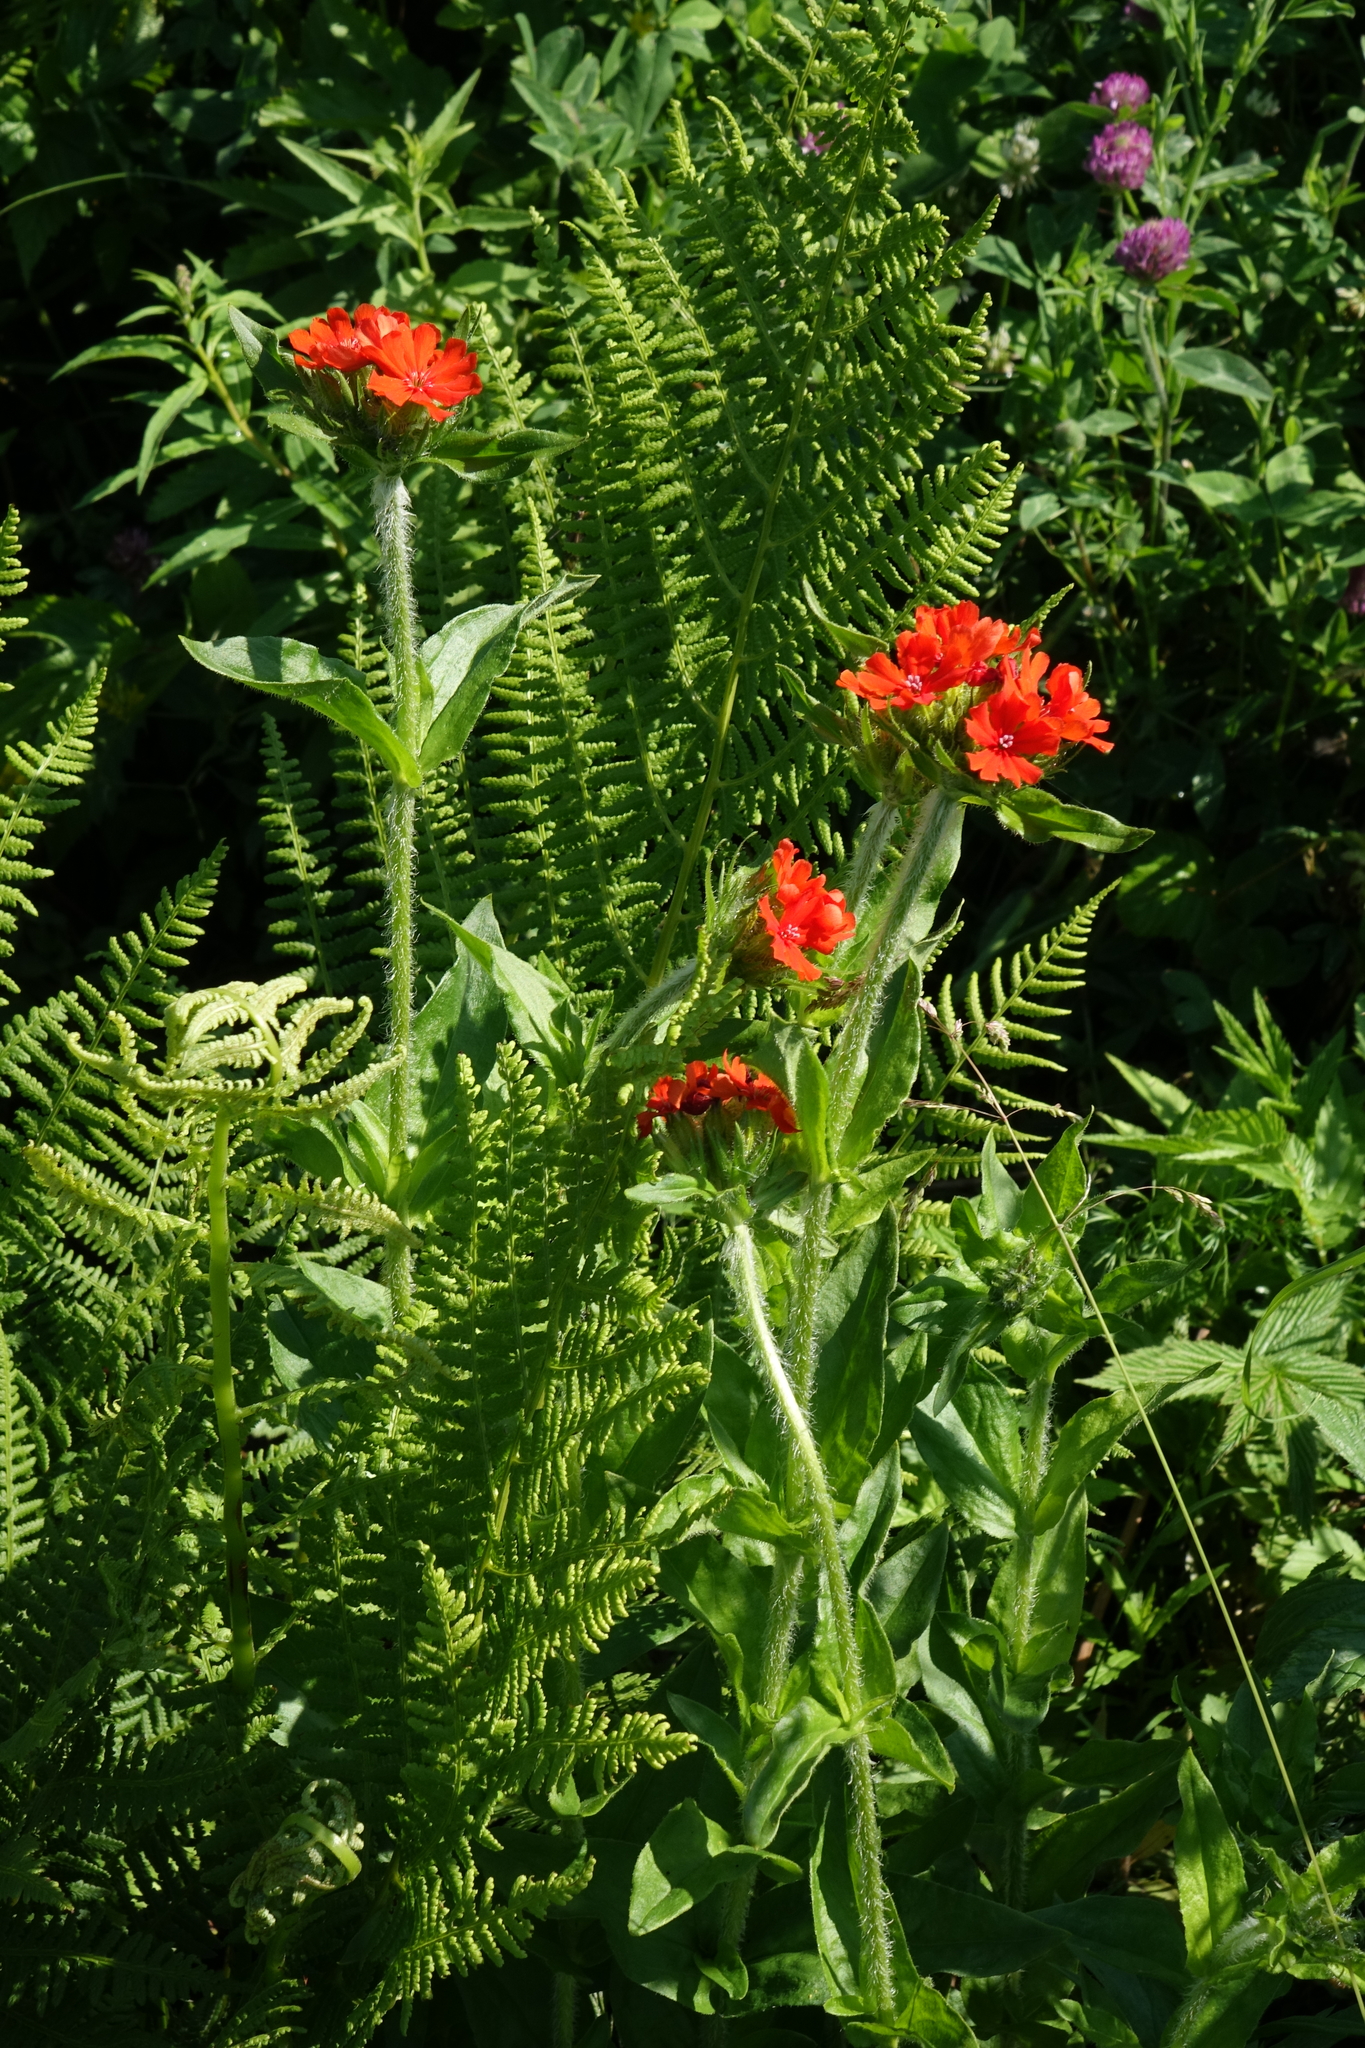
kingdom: Plantae
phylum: Tracheophyta
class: Magnoliopsida
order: Caryophyllales
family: Caryophyllaceae
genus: Silene
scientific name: Silene chalcedonica
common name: Maltese-cross
